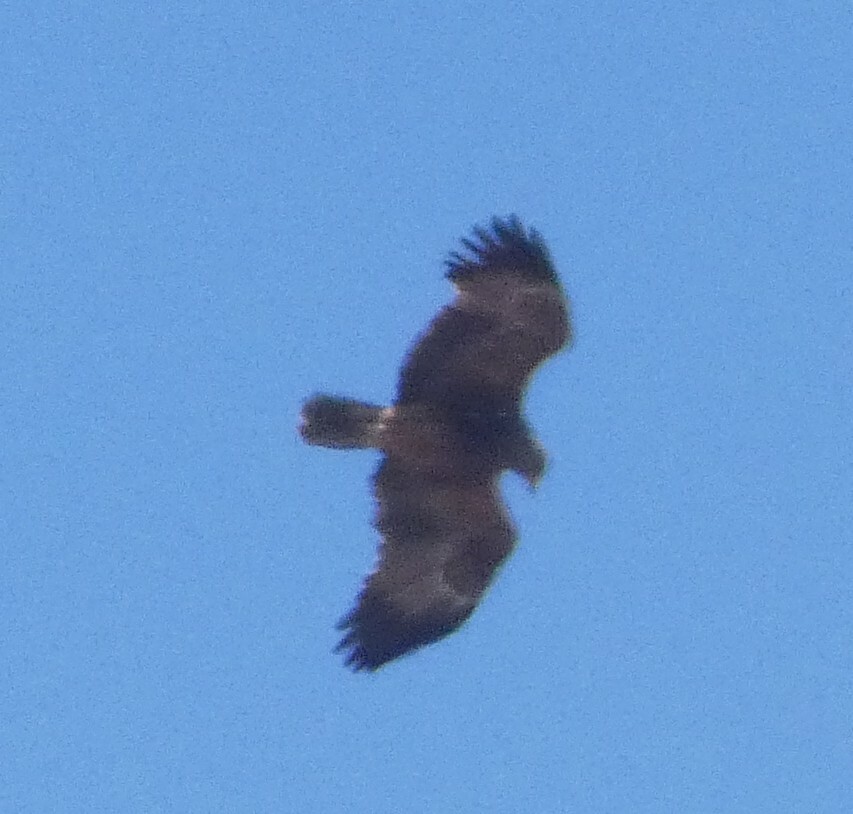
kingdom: Animalia
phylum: Chordata
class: Aves
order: Accipitriformes
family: Accipitridae
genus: Aquila
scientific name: Aquila pomarina
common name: Lesser spotted eagle
